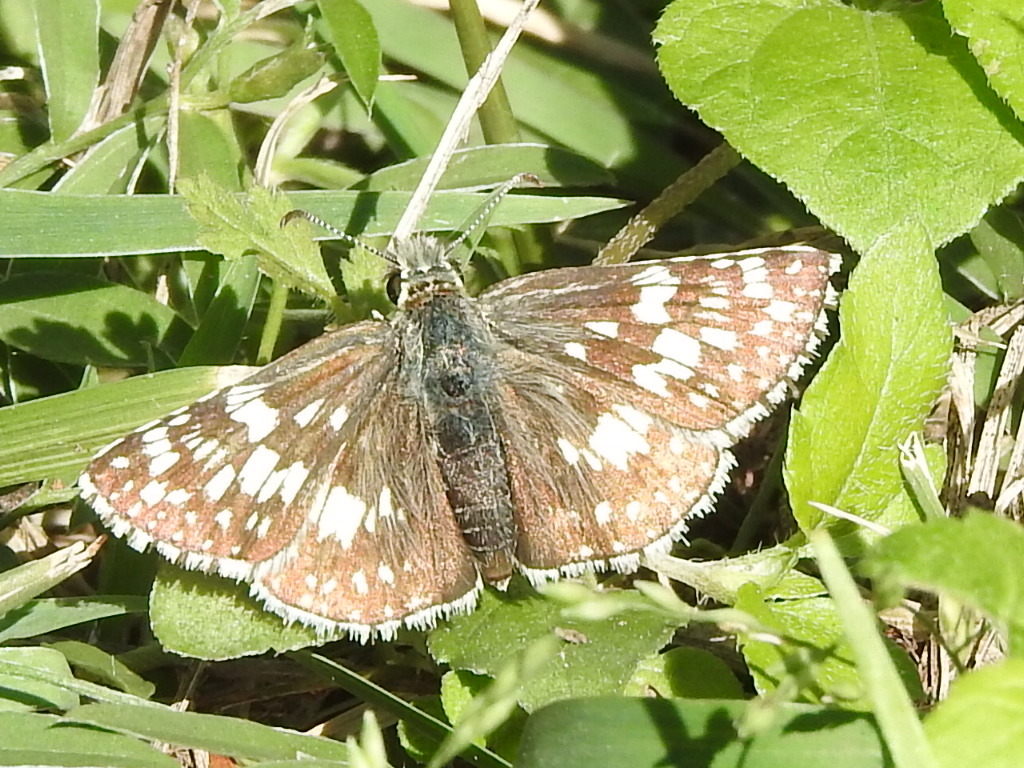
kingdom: Animalia
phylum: Arthropoda
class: Insecta
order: Lepidoptera
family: Hesperiidae
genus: Burnsius
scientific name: Burnsius
